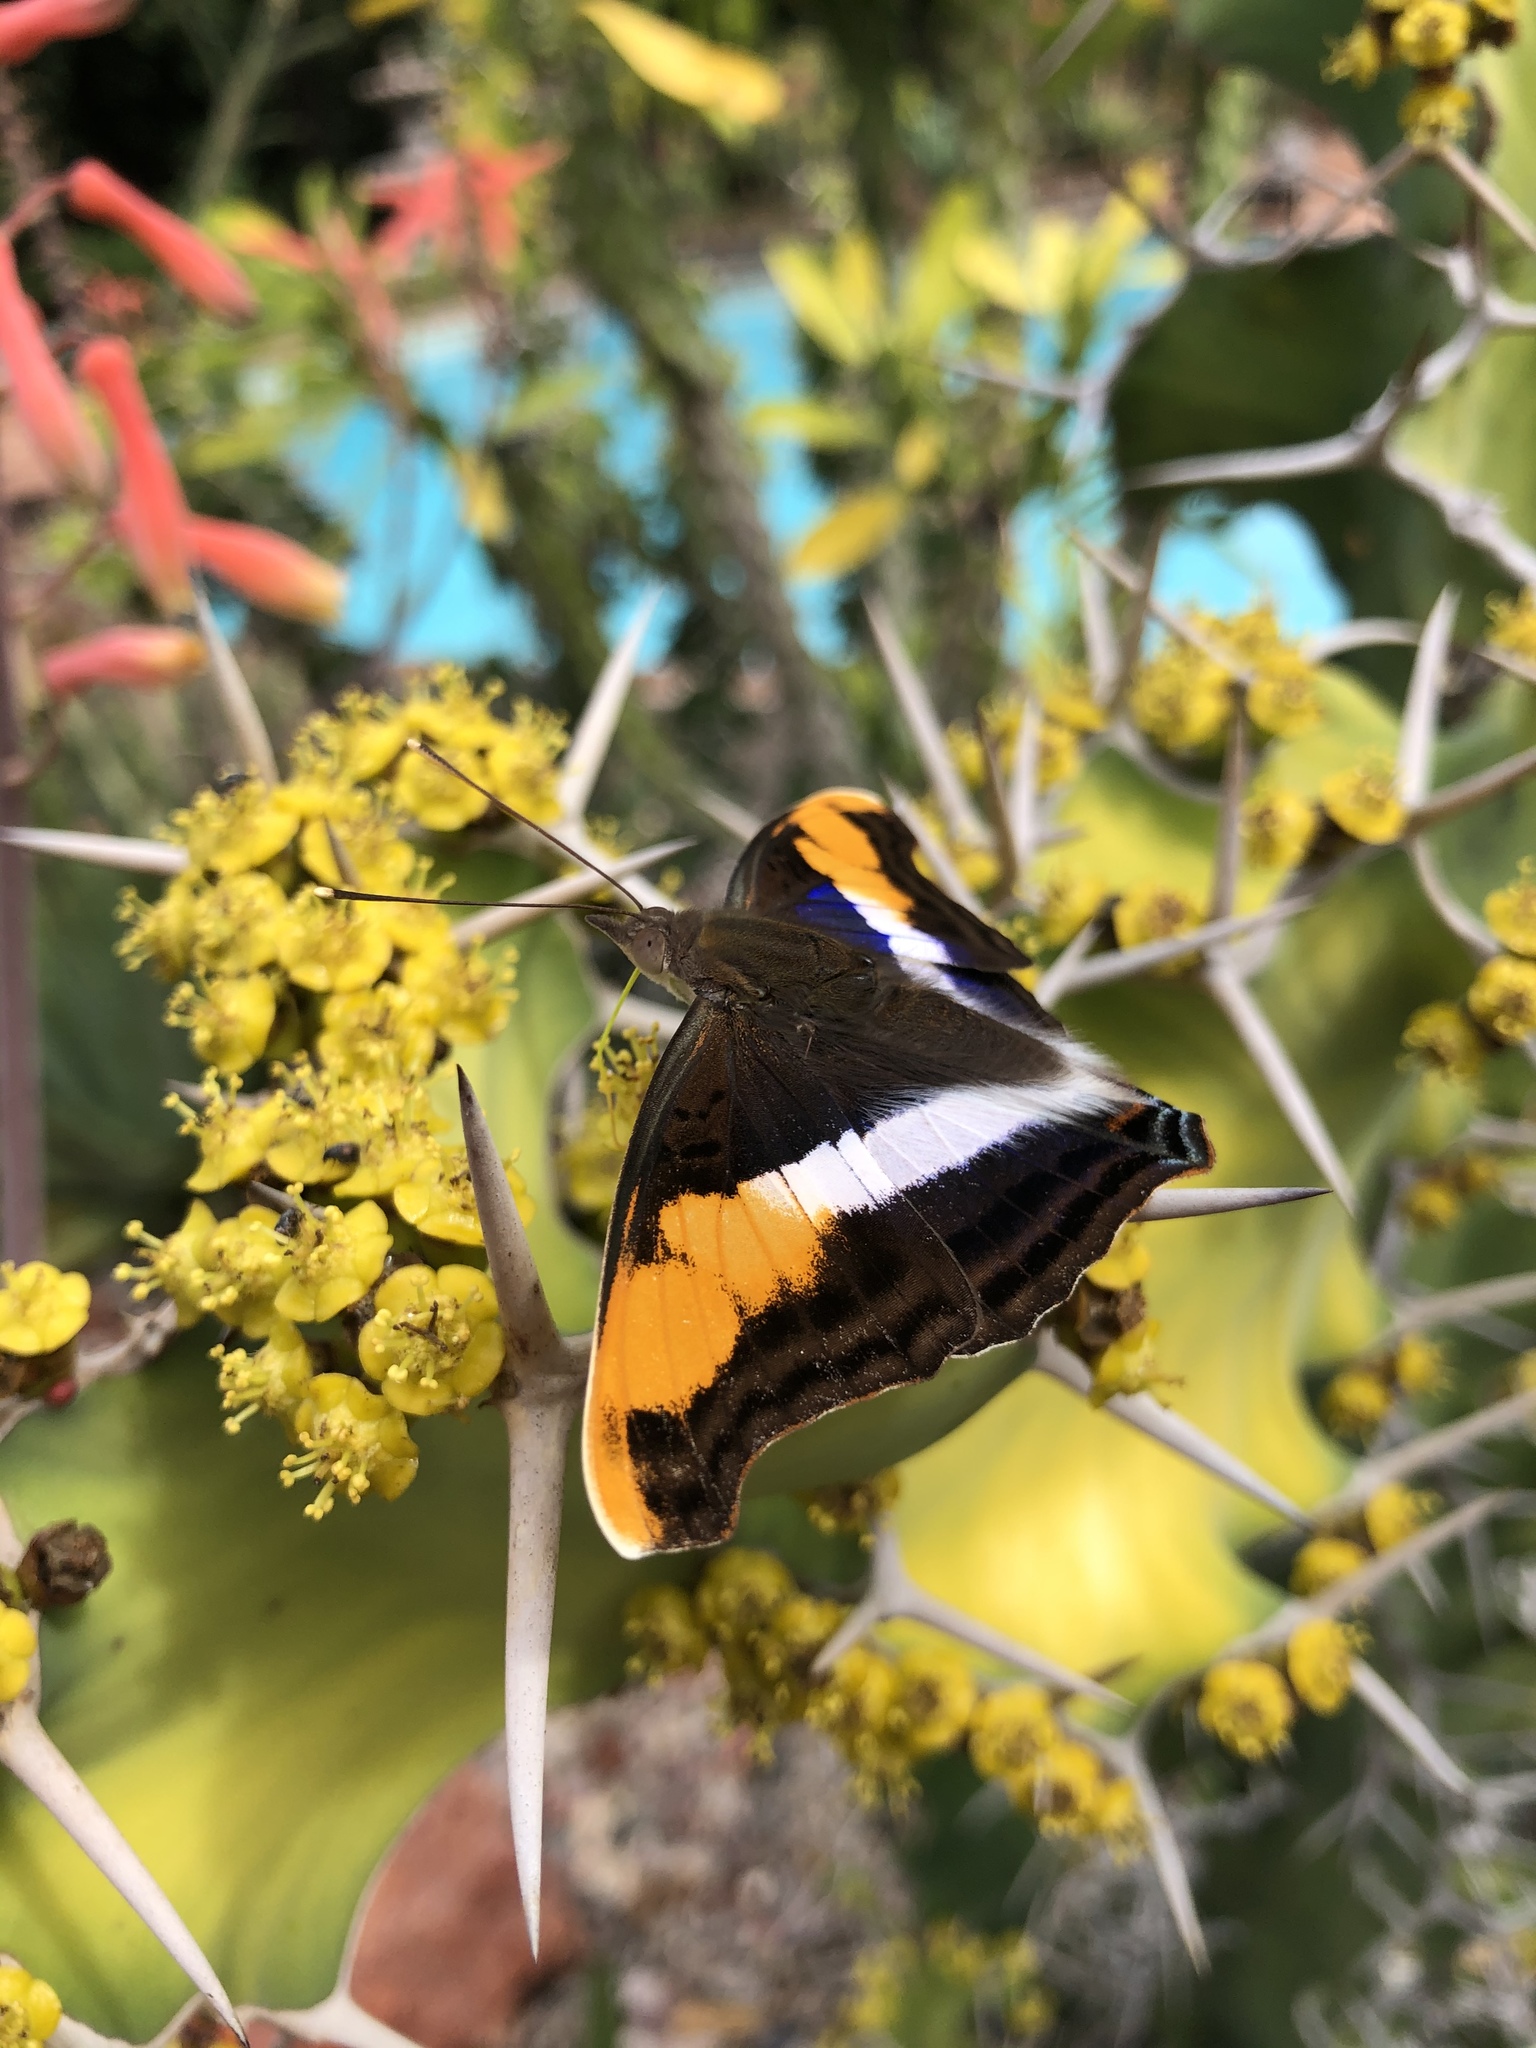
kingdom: Animalia
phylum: Arthropoda
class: Insecta
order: Lepidoptera
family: Nymphalidae
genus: Doxocopa
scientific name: Doxocopa laure
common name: Silver emperor
